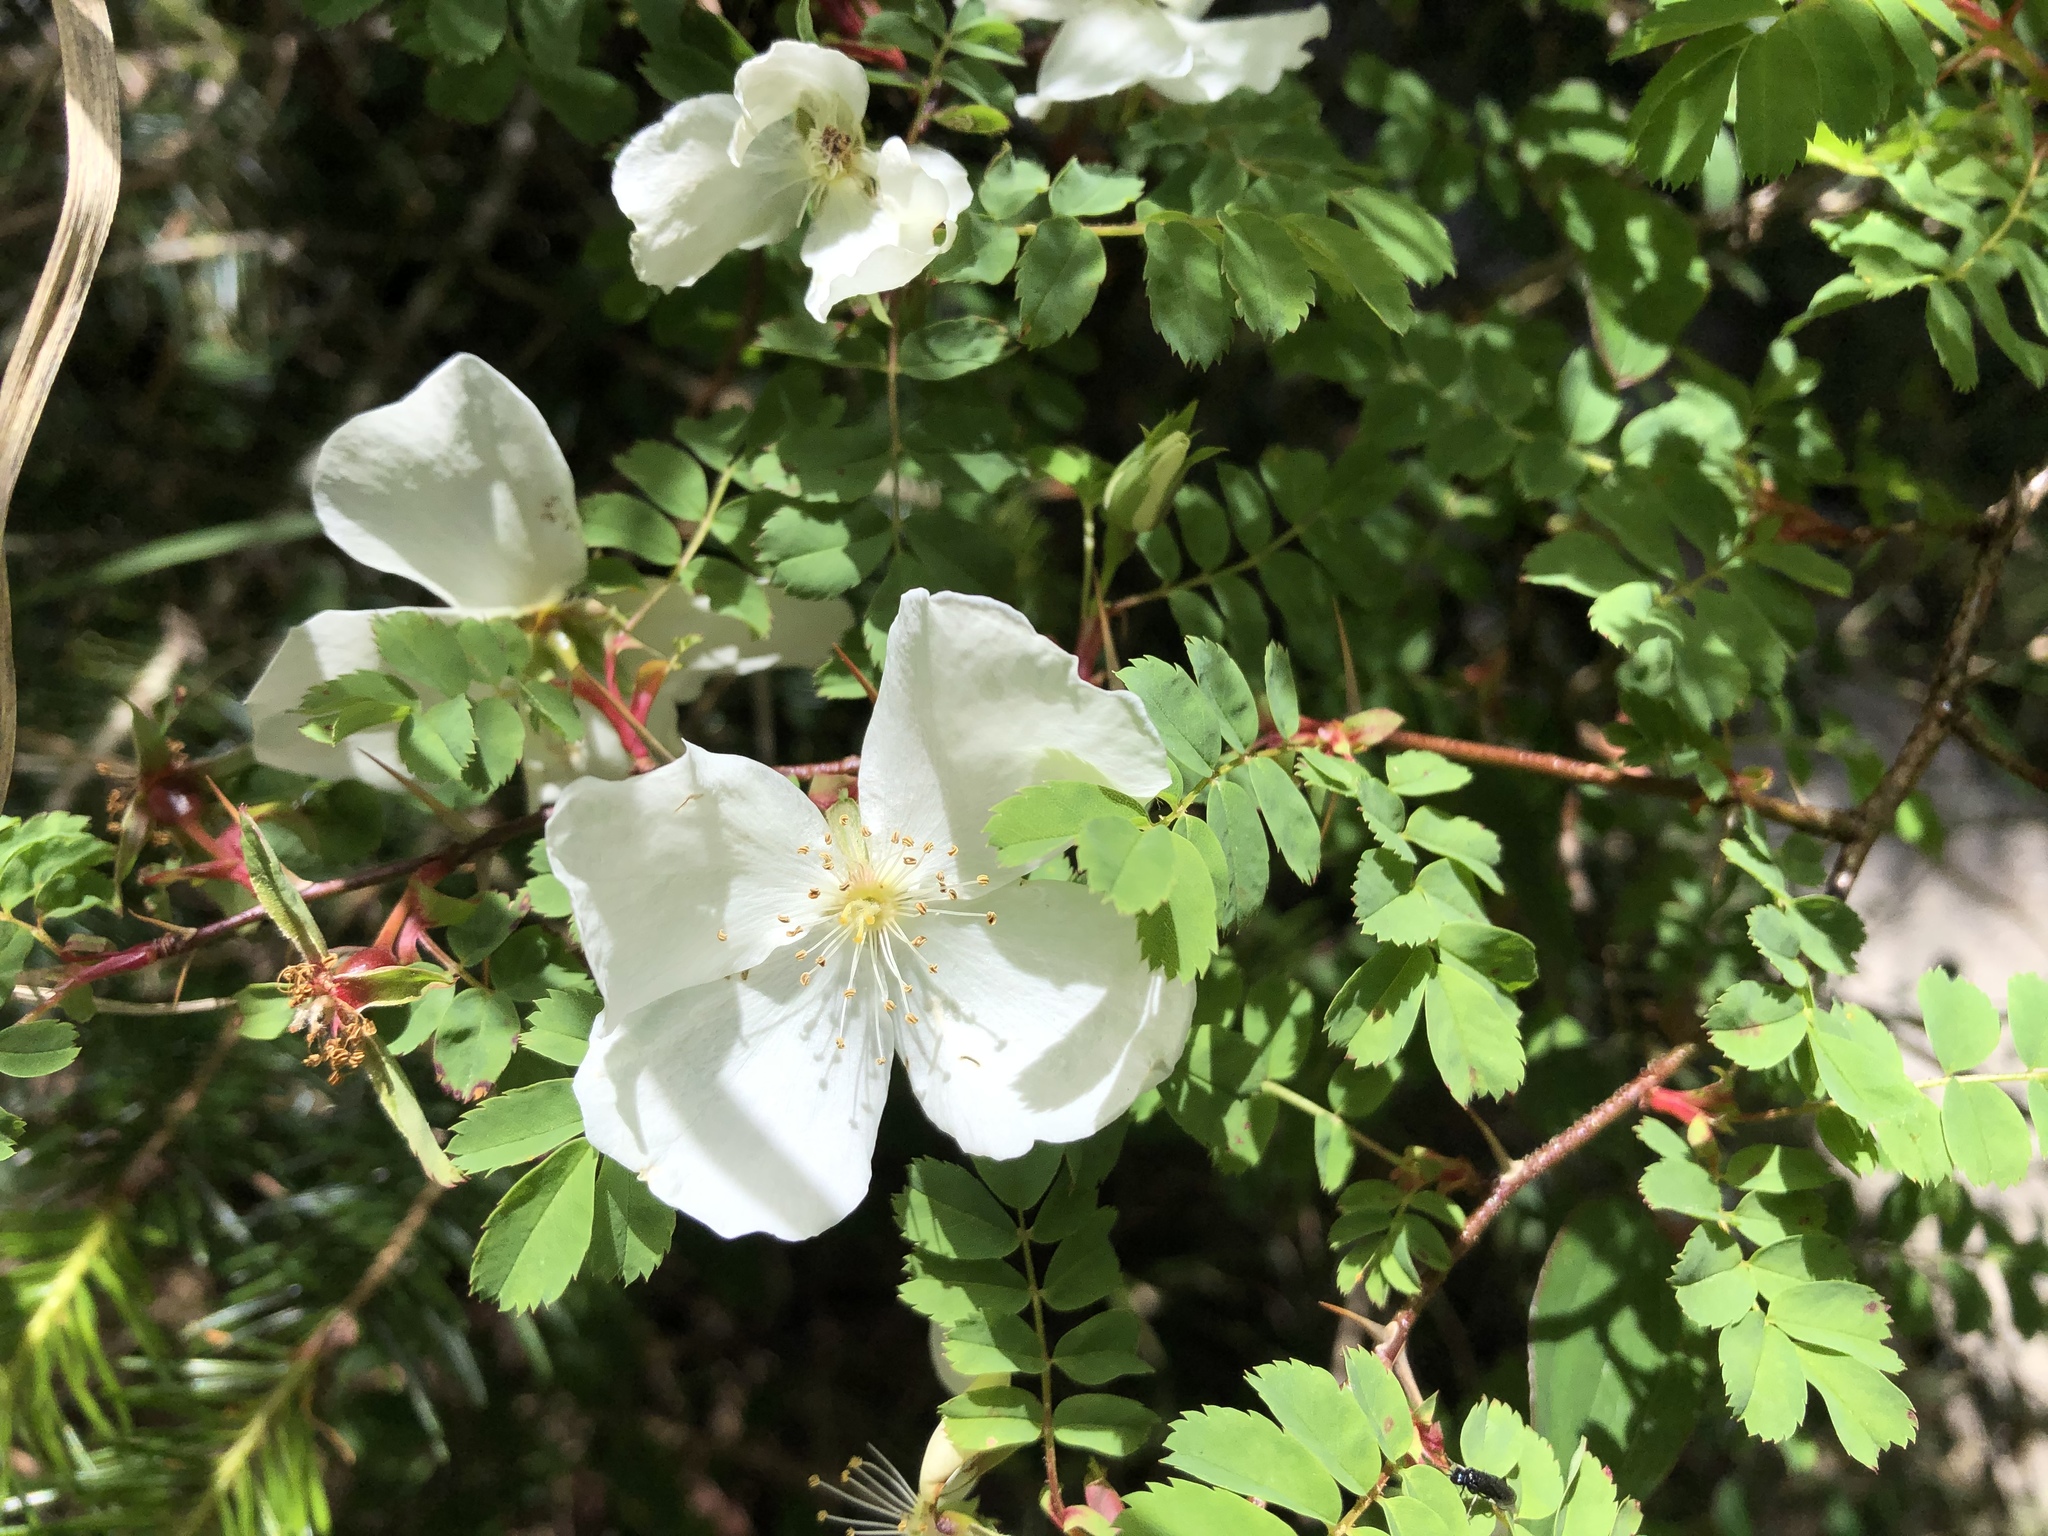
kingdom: Plantae
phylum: Tracheophyta
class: Magnoliopsida
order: Rosales
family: Rosaceae
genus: Rosa
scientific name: Rosa morrisonensis
